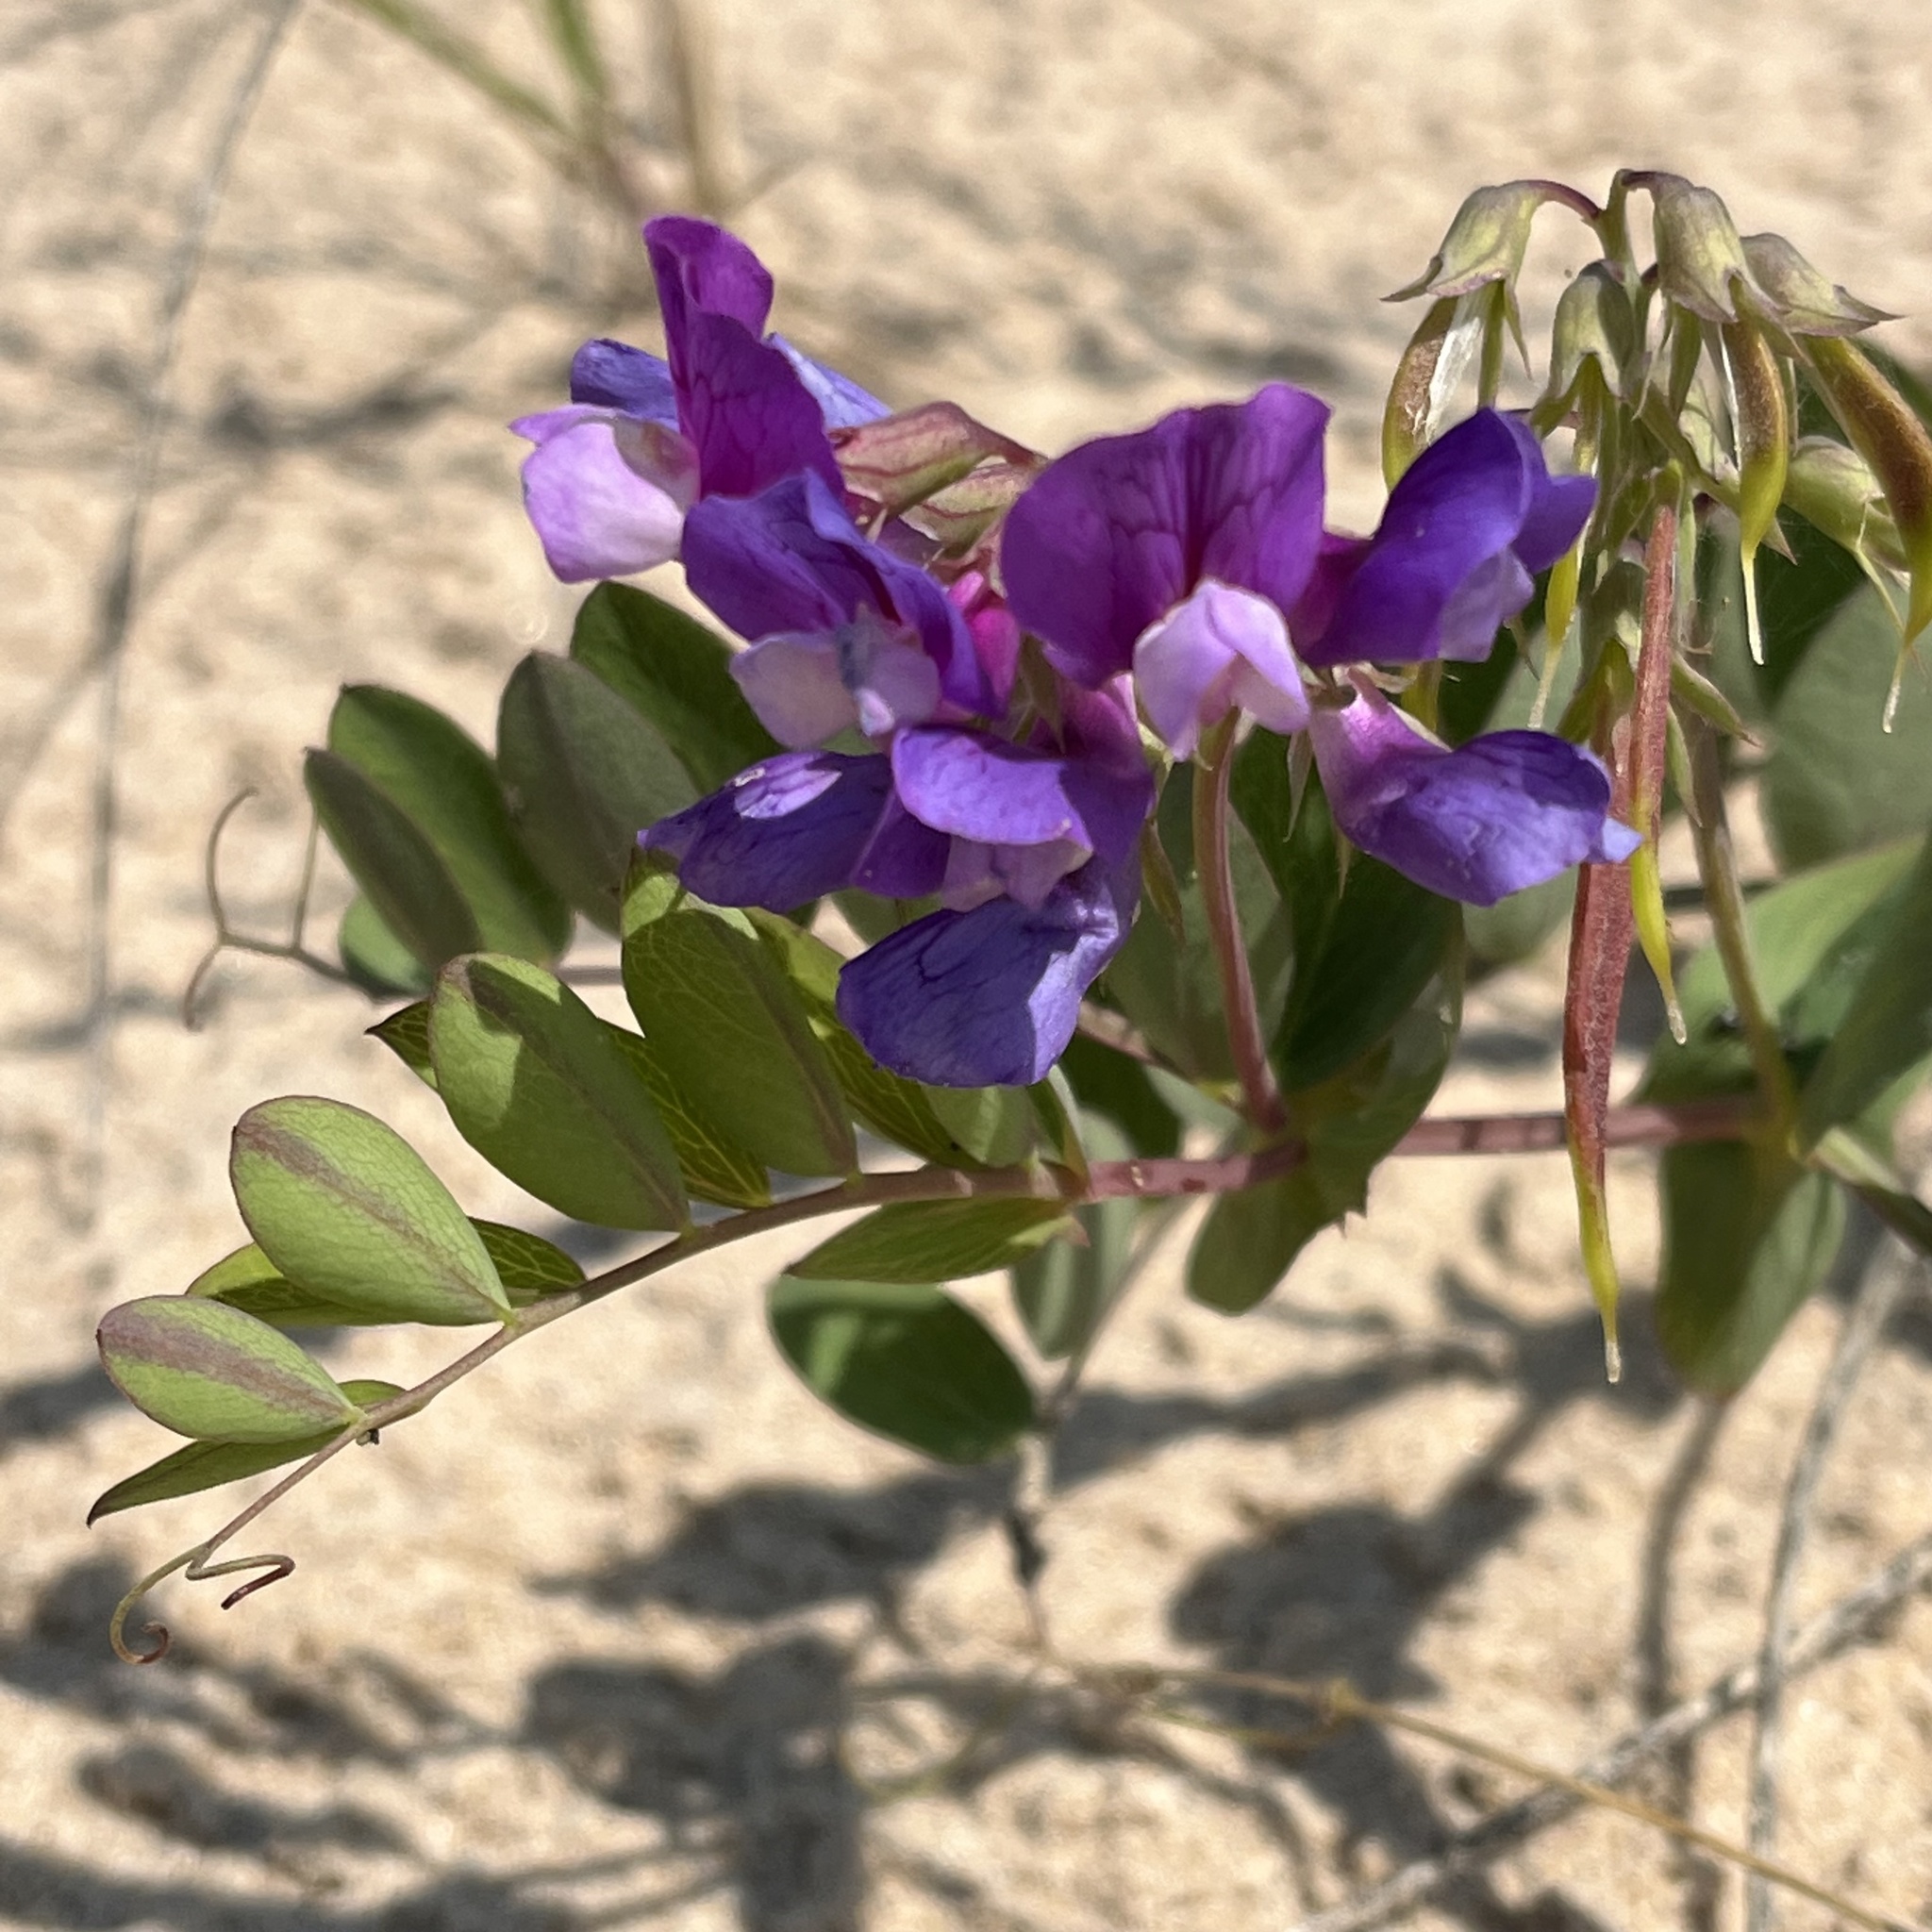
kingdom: Plantae
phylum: Tracheophyta
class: Magnoliopsida
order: Fabales
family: Fabaceae
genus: Lathyrus
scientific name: Lathyrus japonicus
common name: Sea pea
